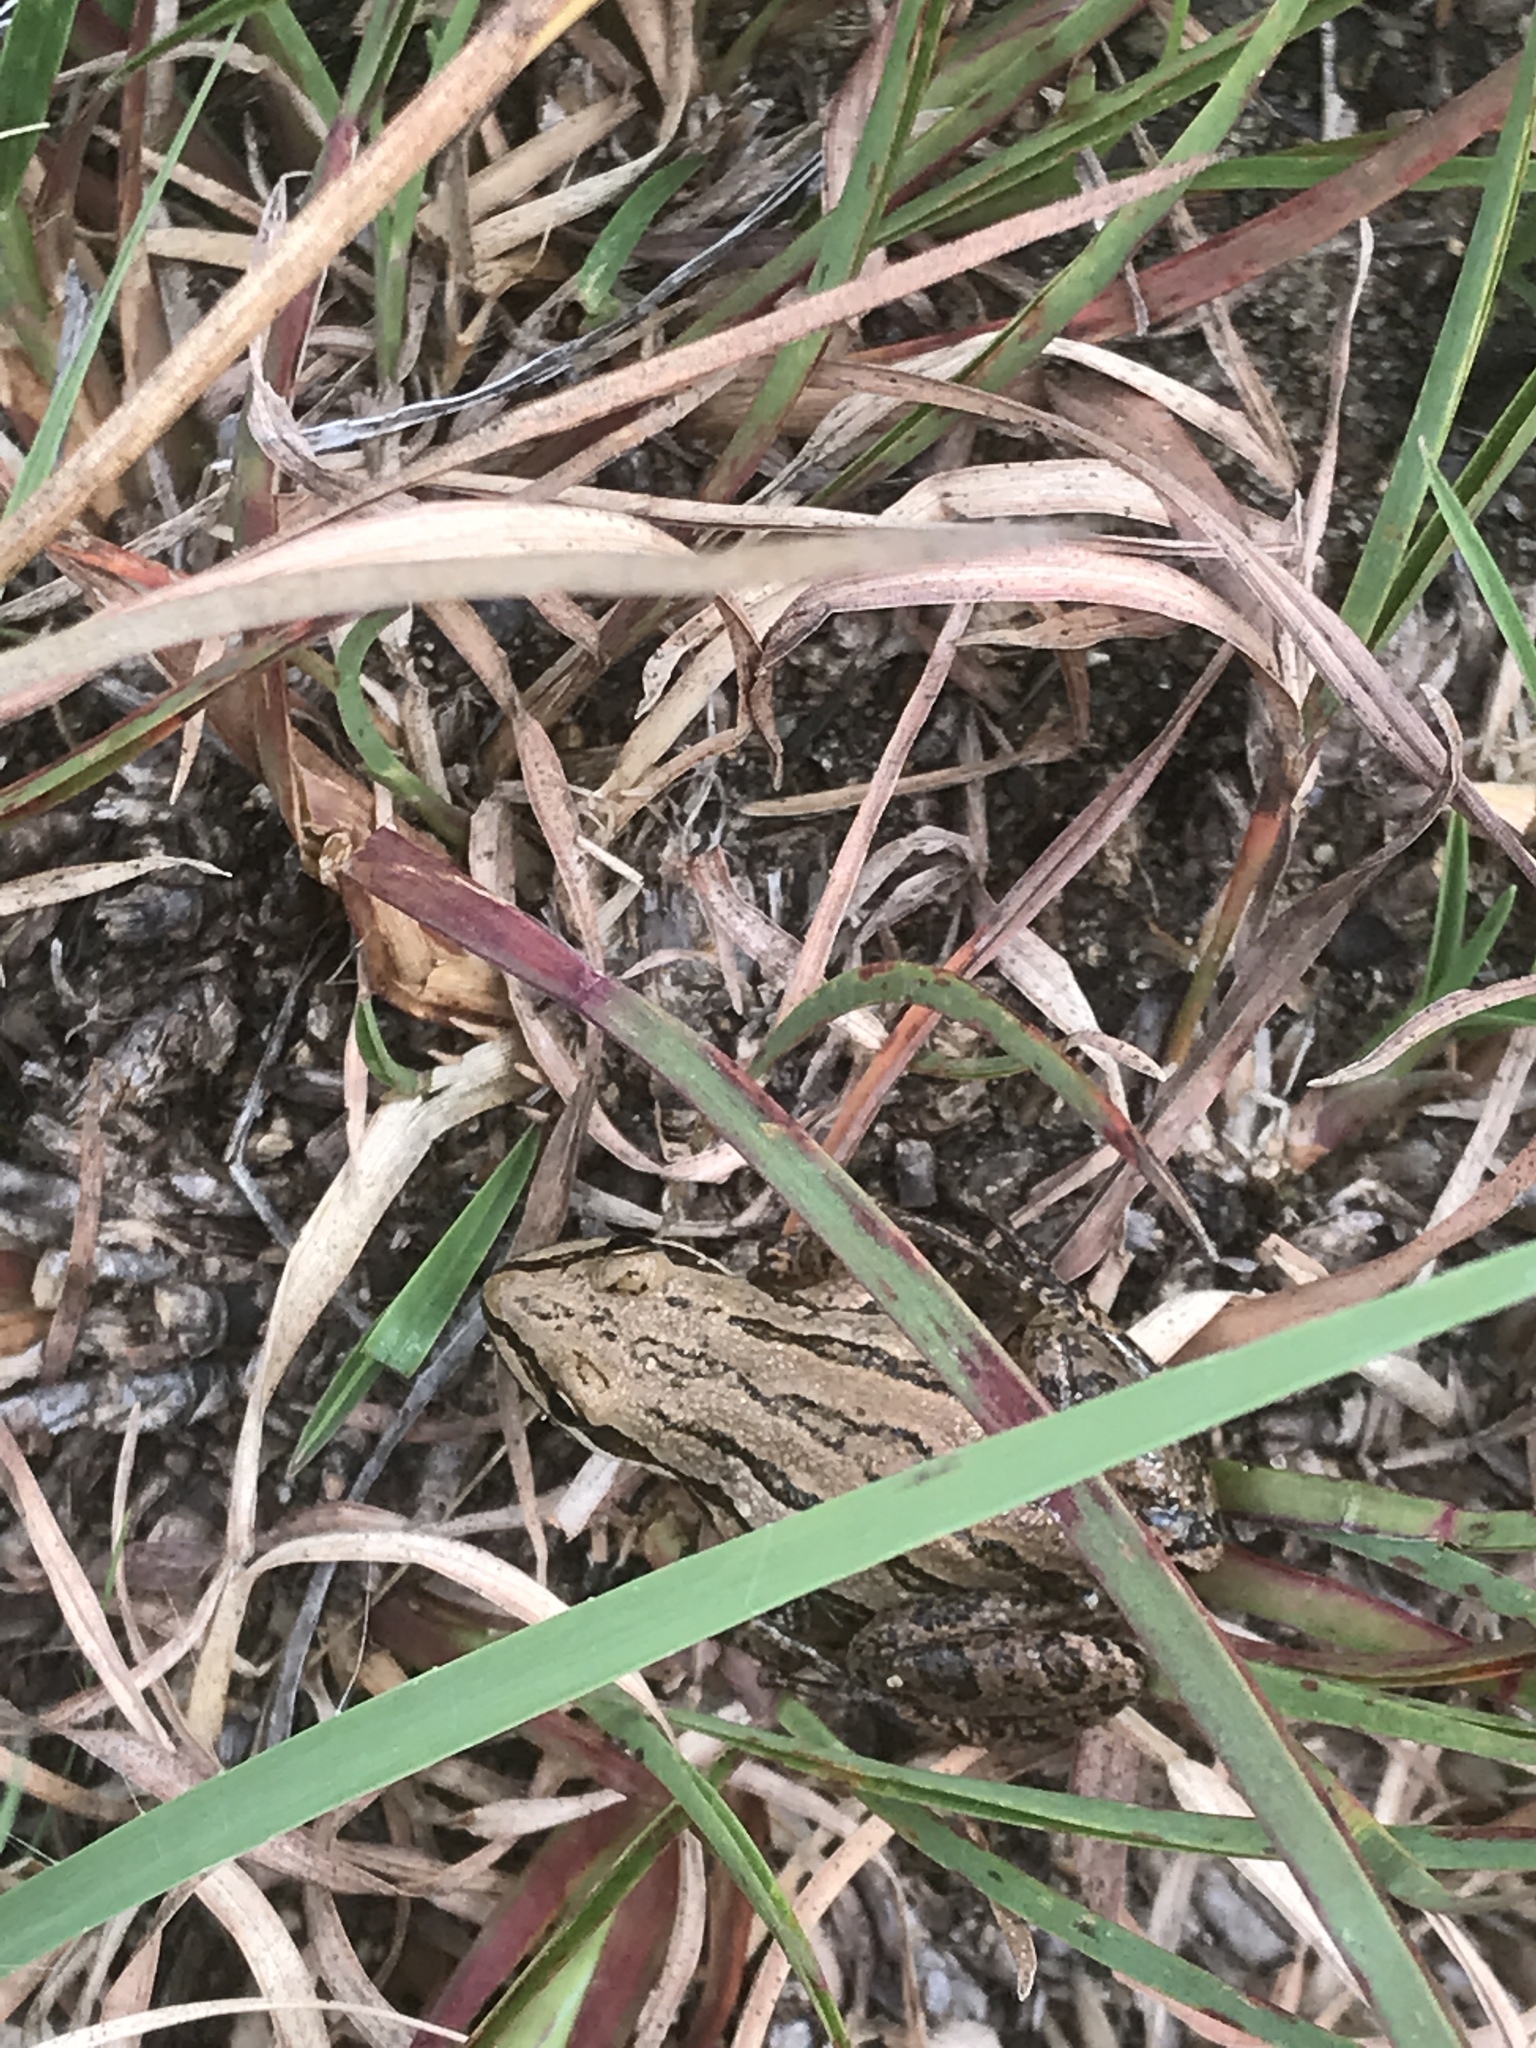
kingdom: Animalia
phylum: Chordata
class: Amphibia
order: Anura
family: Hylidae
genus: Pseudacris
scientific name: Pseudacris maculata
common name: Boreal chorus frog
